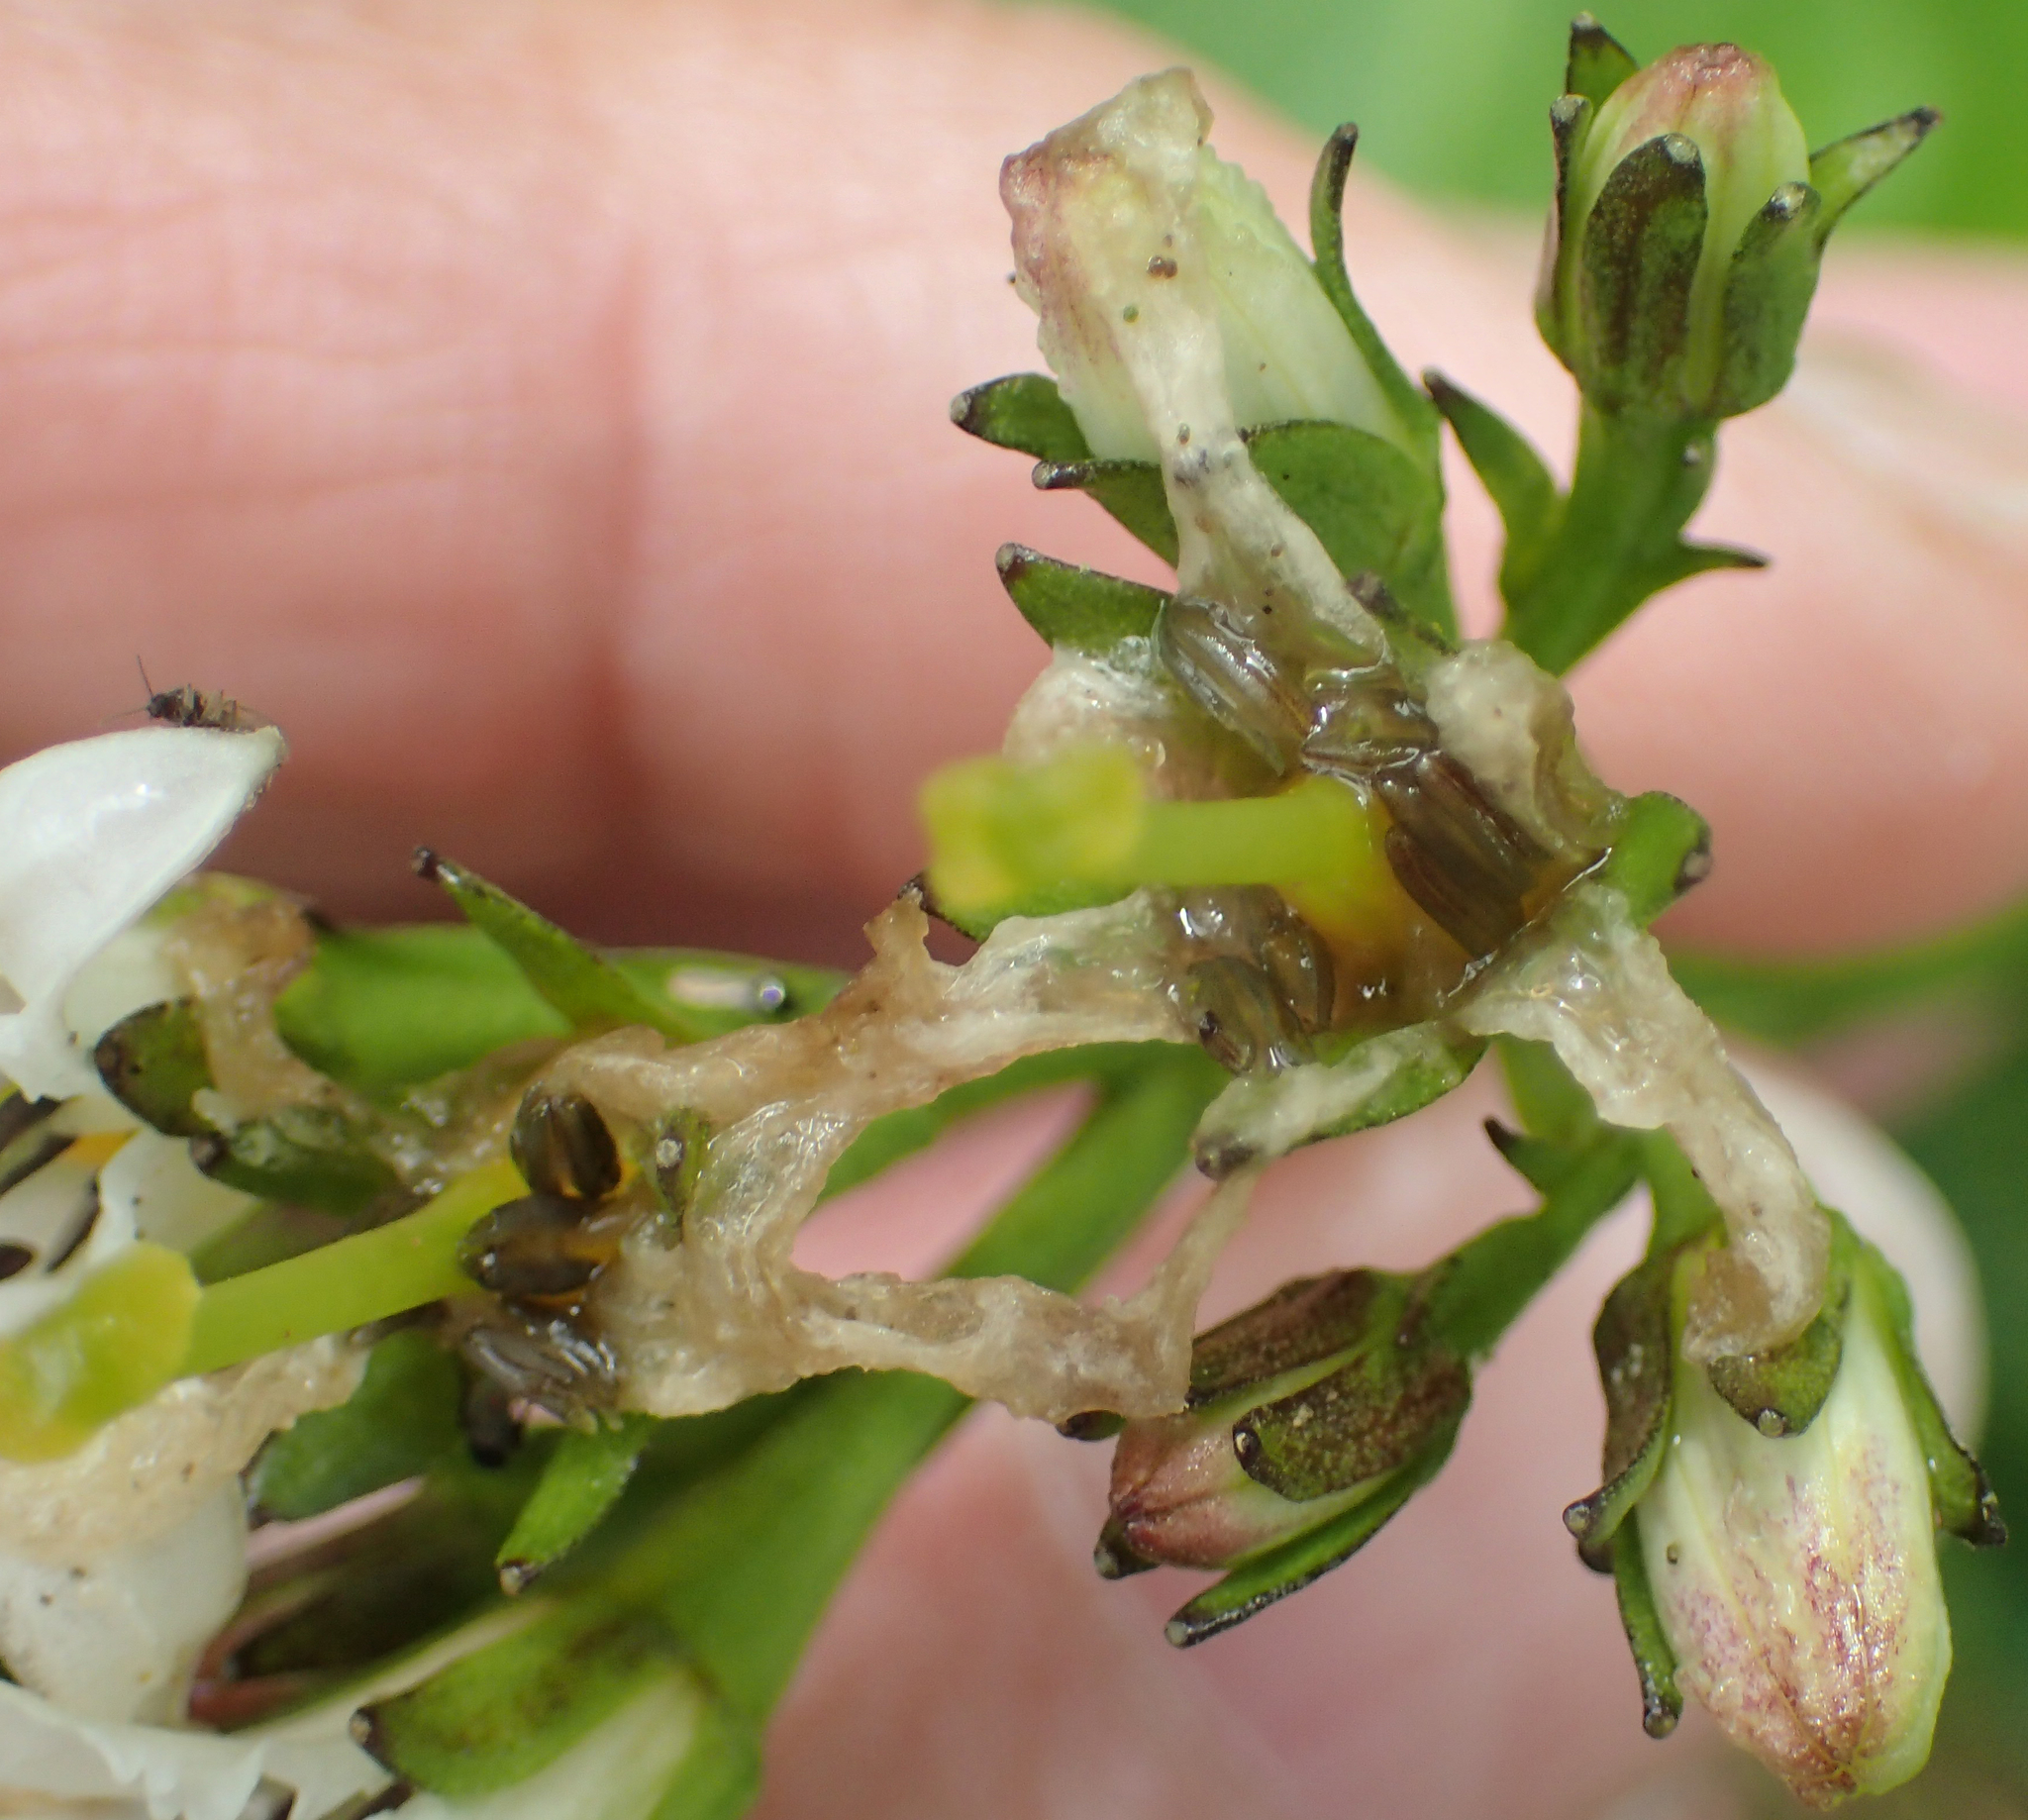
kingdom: Plantae
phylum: Tracheophyta
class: Magnoliopsida
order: Asterales
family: Menyanthaceae
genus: Nephrophyllidium
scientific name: Nephrophyllidium crista-galli
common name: Deer-cabbage
